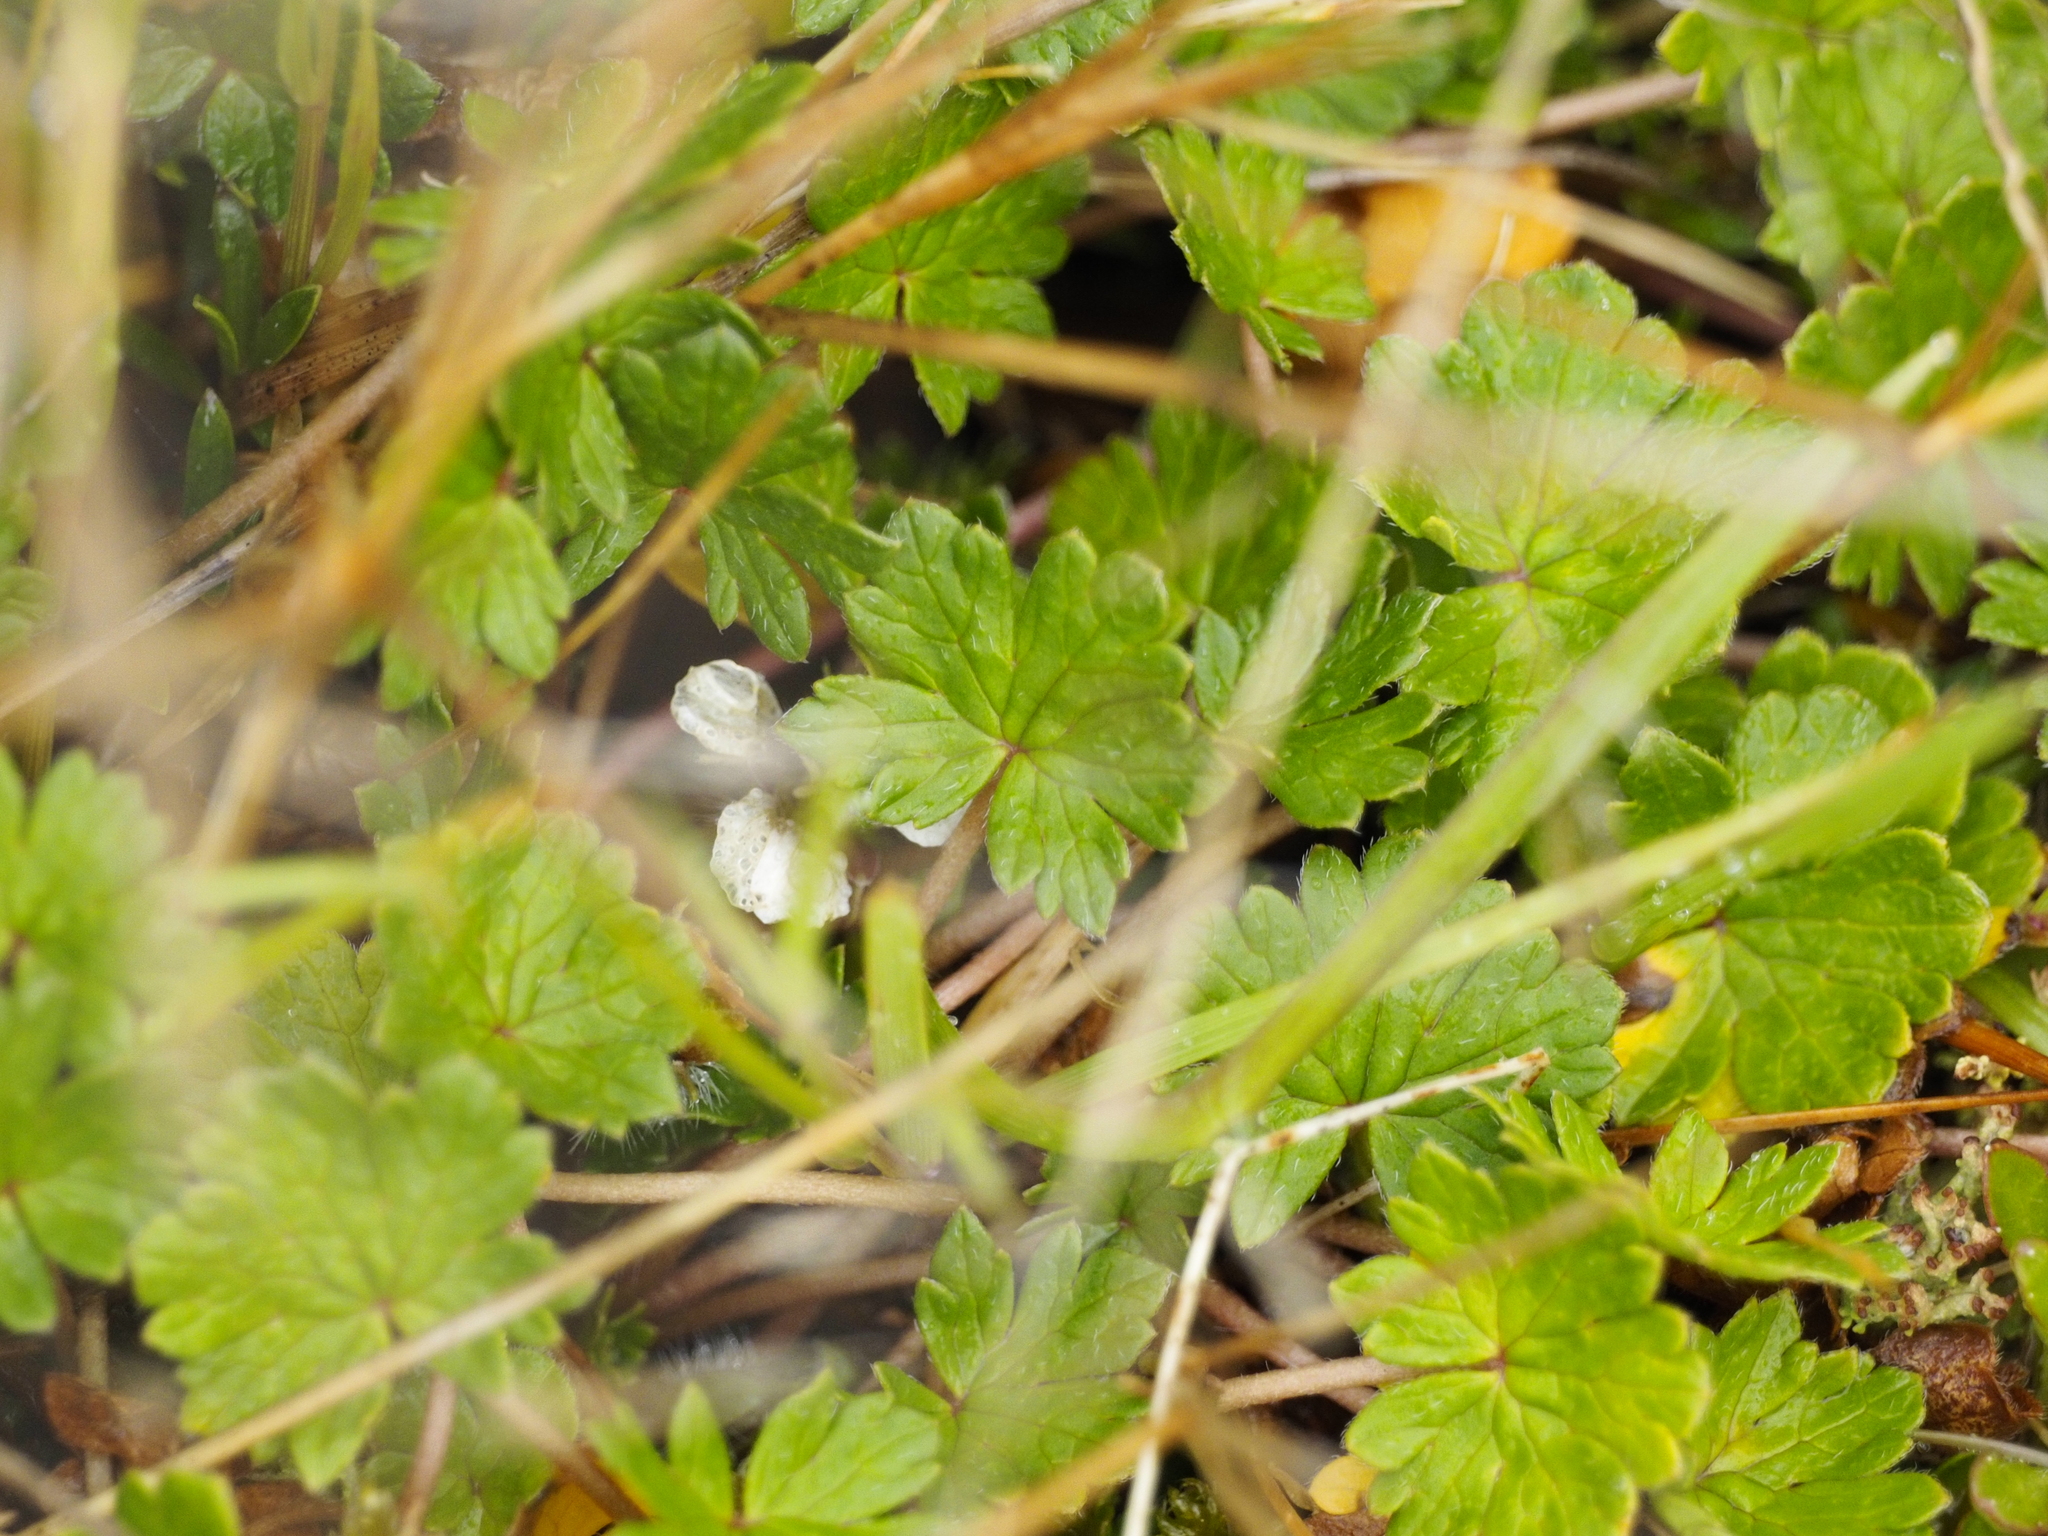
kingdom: Plantae
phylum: Tracheophyta
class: Magnoliopsida
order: Geraniales
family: Geraniaceae
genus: Geranium
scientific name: Geranium brevicaule
